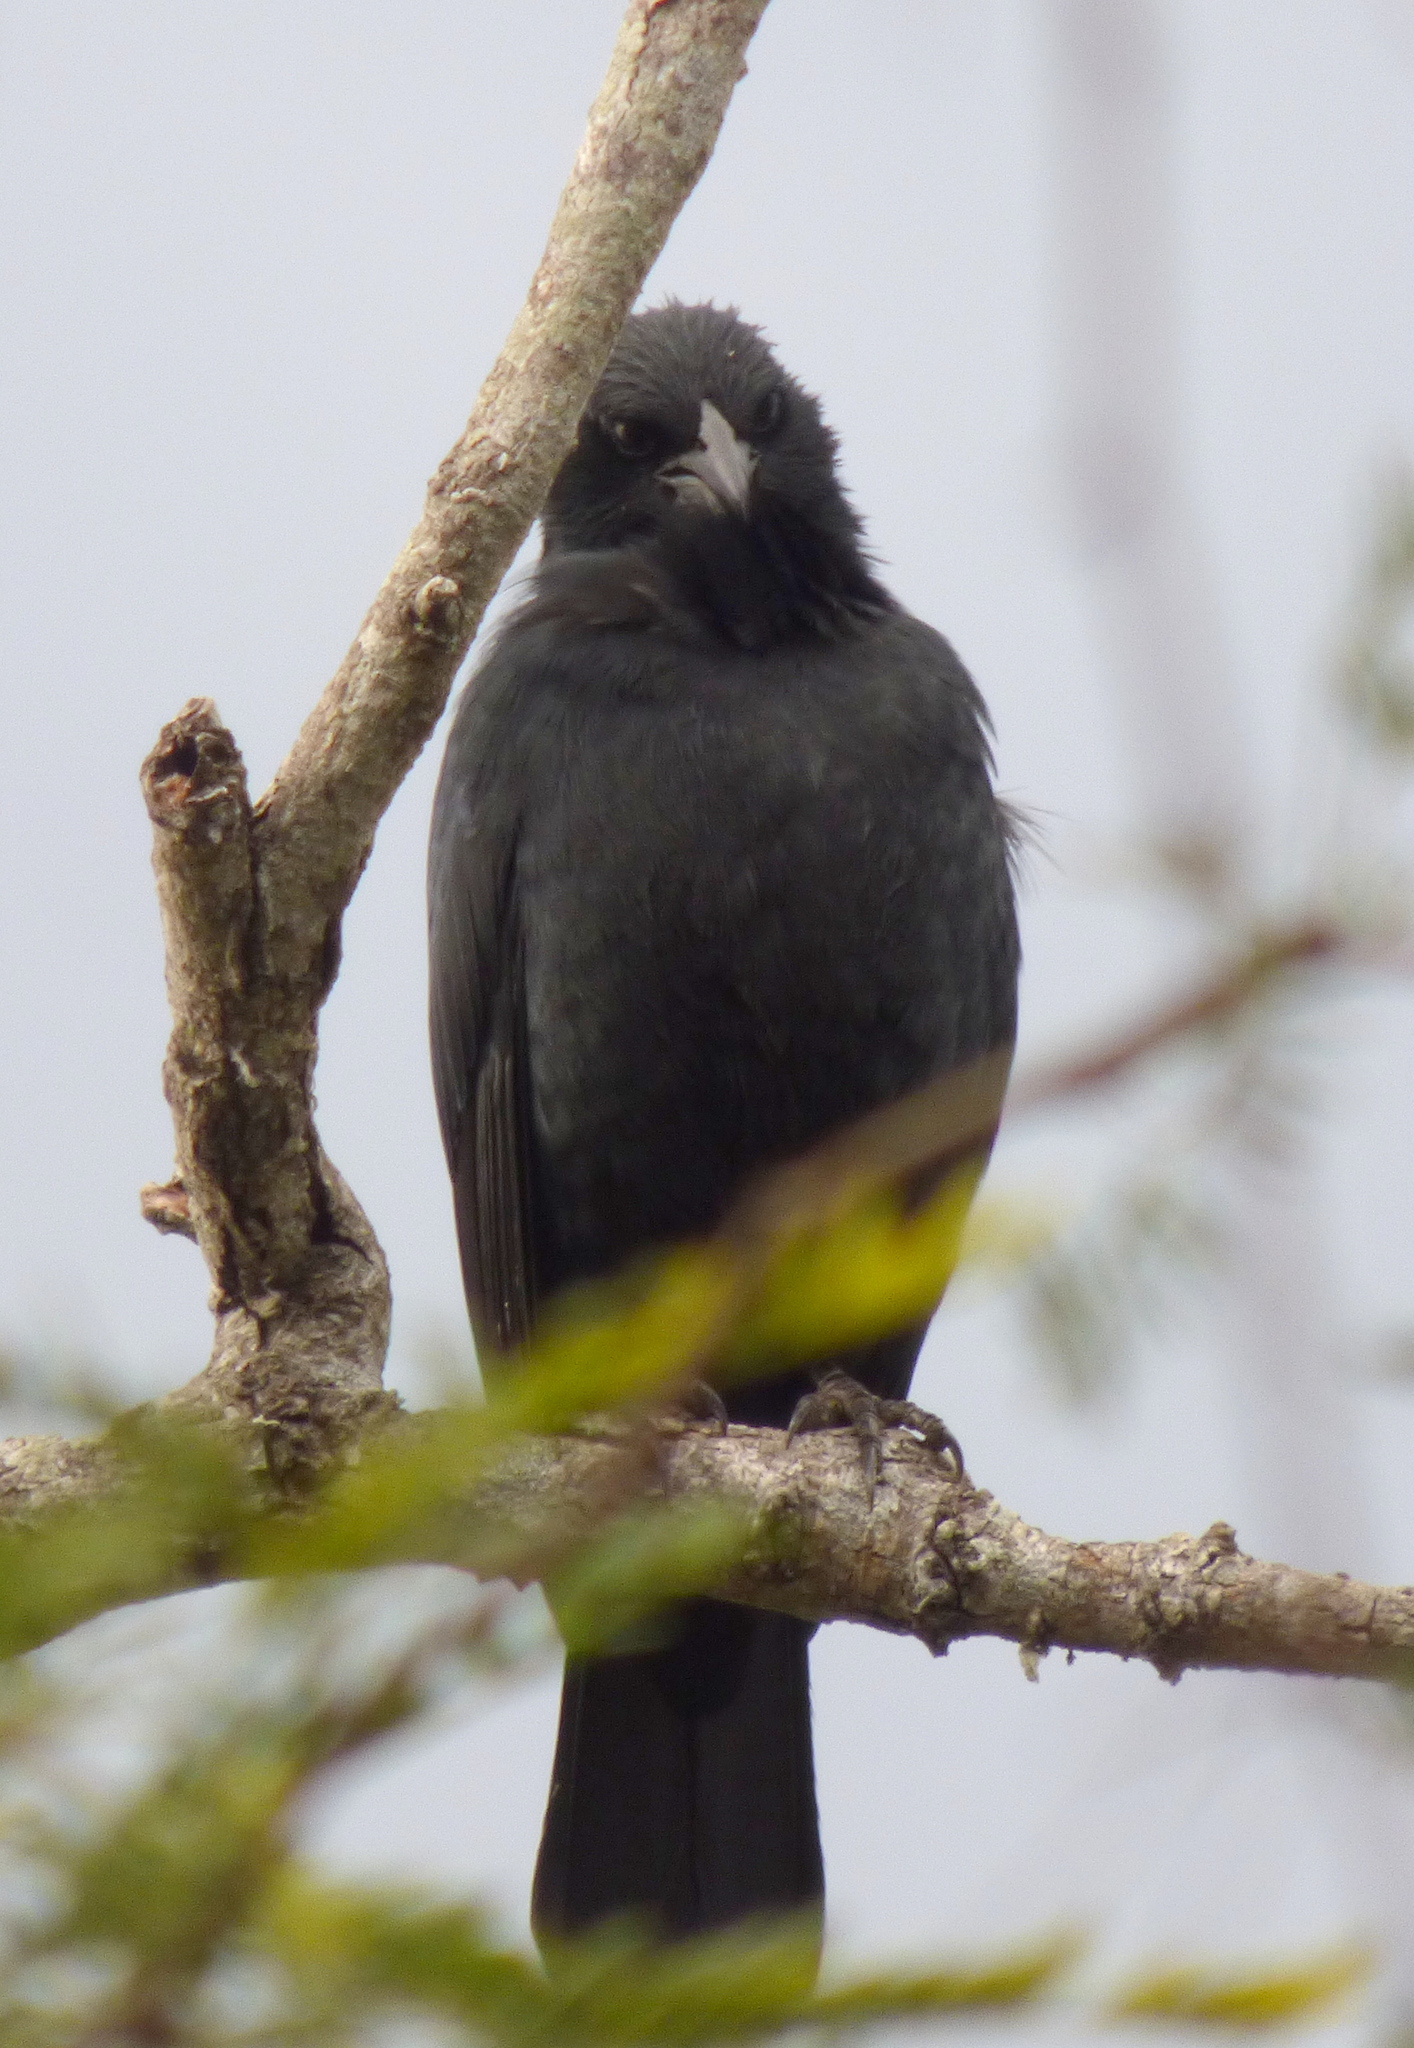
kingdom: Animalia
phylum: Chordata
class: Aves
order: Passeriformes
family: Icteridae
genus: Gnorimopsar
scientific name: Gnorimopsar chopi
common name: Chopi blackbird
